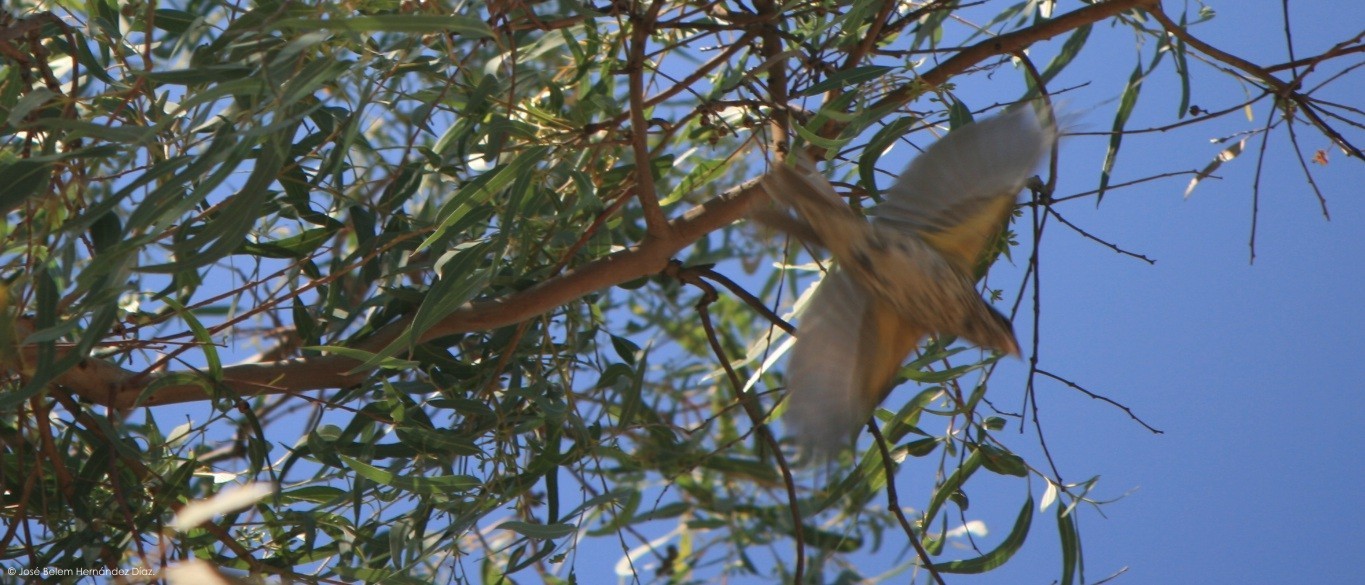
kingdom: Animalia
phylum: Chordata
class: Aves
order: Passeriformes
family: Cardinalidae
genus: Pheucticus
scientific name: Pheucticus melanocephalus
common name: Black-headed grosbeak
